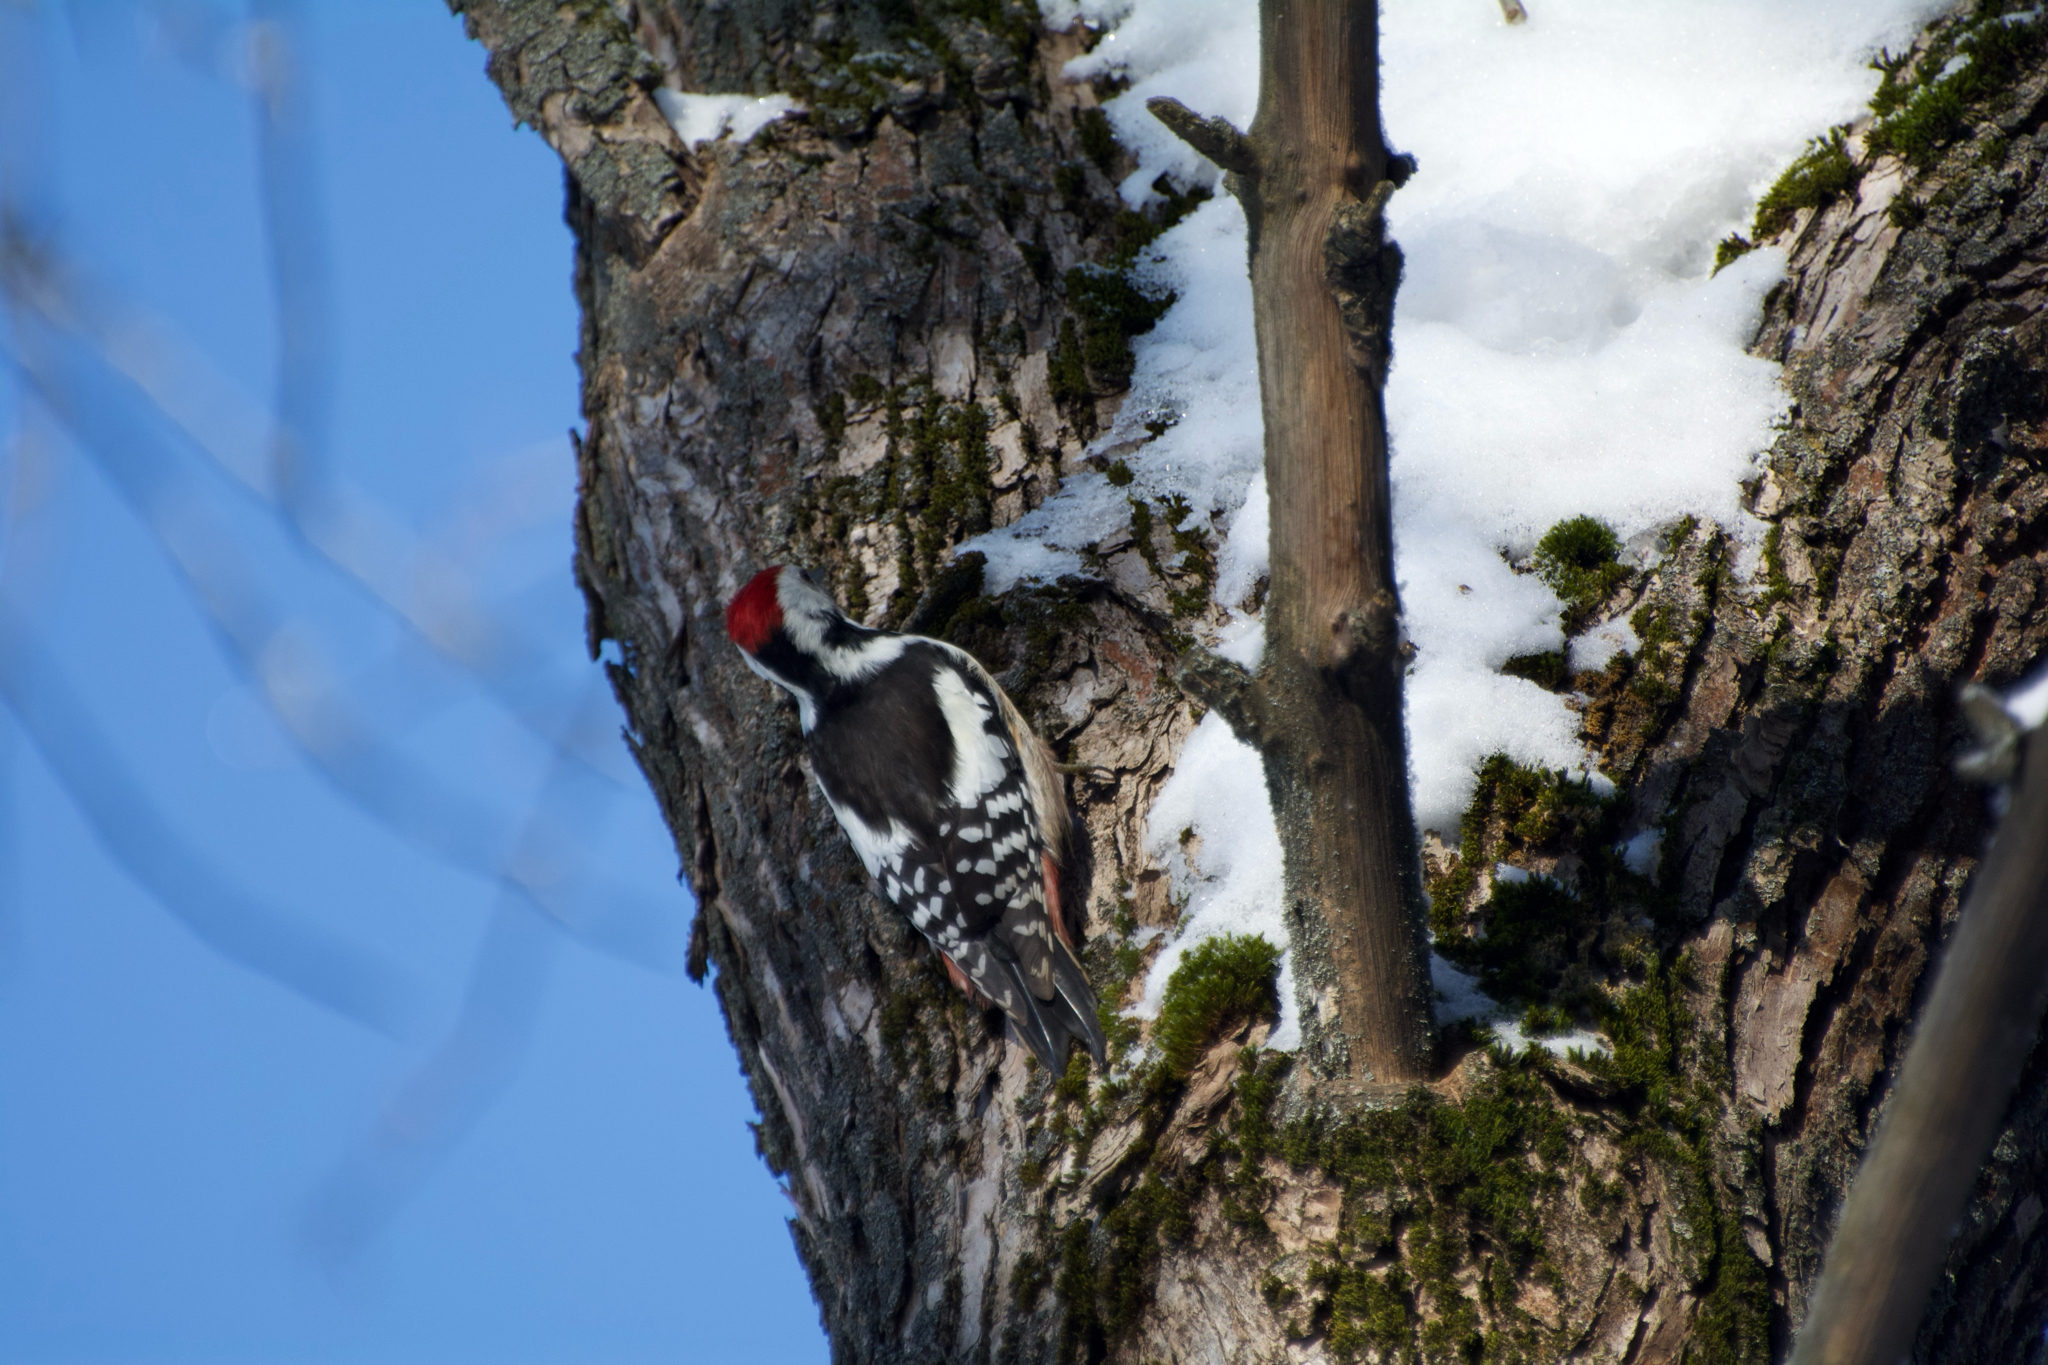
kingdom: Animalia
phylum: Chordata
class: Aves
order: Piciformes
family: Picidae
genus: Dendrocoptes
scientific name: Dendrocoptes medius
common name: Middle spotted woodpecker
